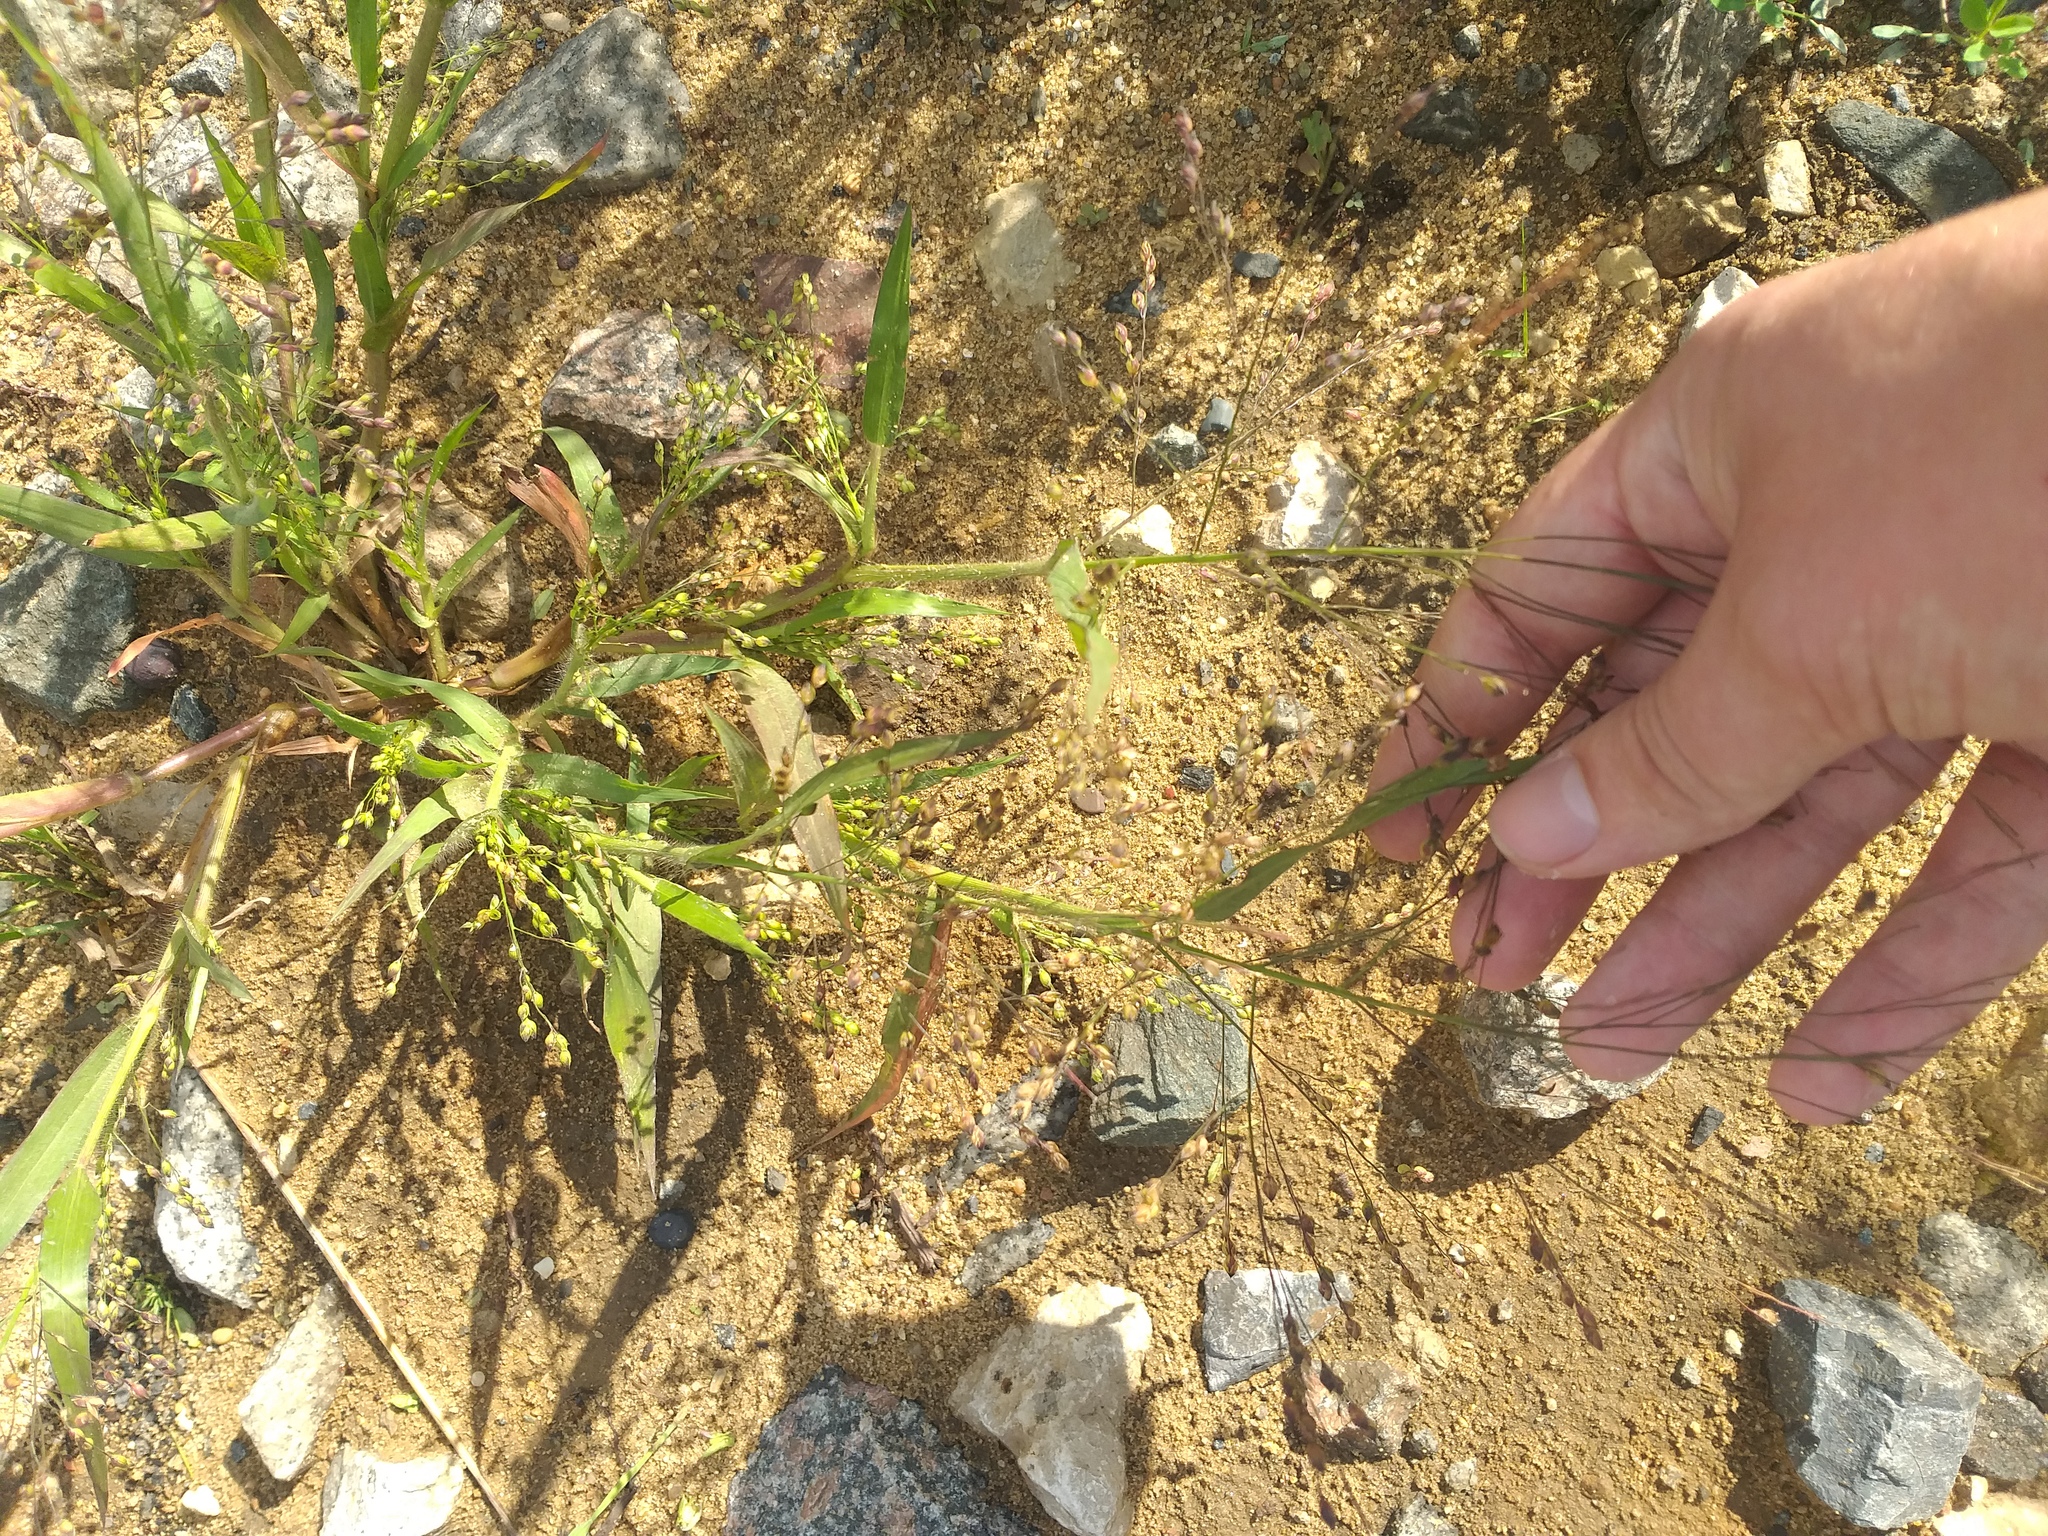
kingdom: Plantae
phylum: Tracheophyta
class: Liliopsida
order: Poales
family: Poaceae
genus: Panicum
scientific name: Panicum miliaceum
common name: Common millet
